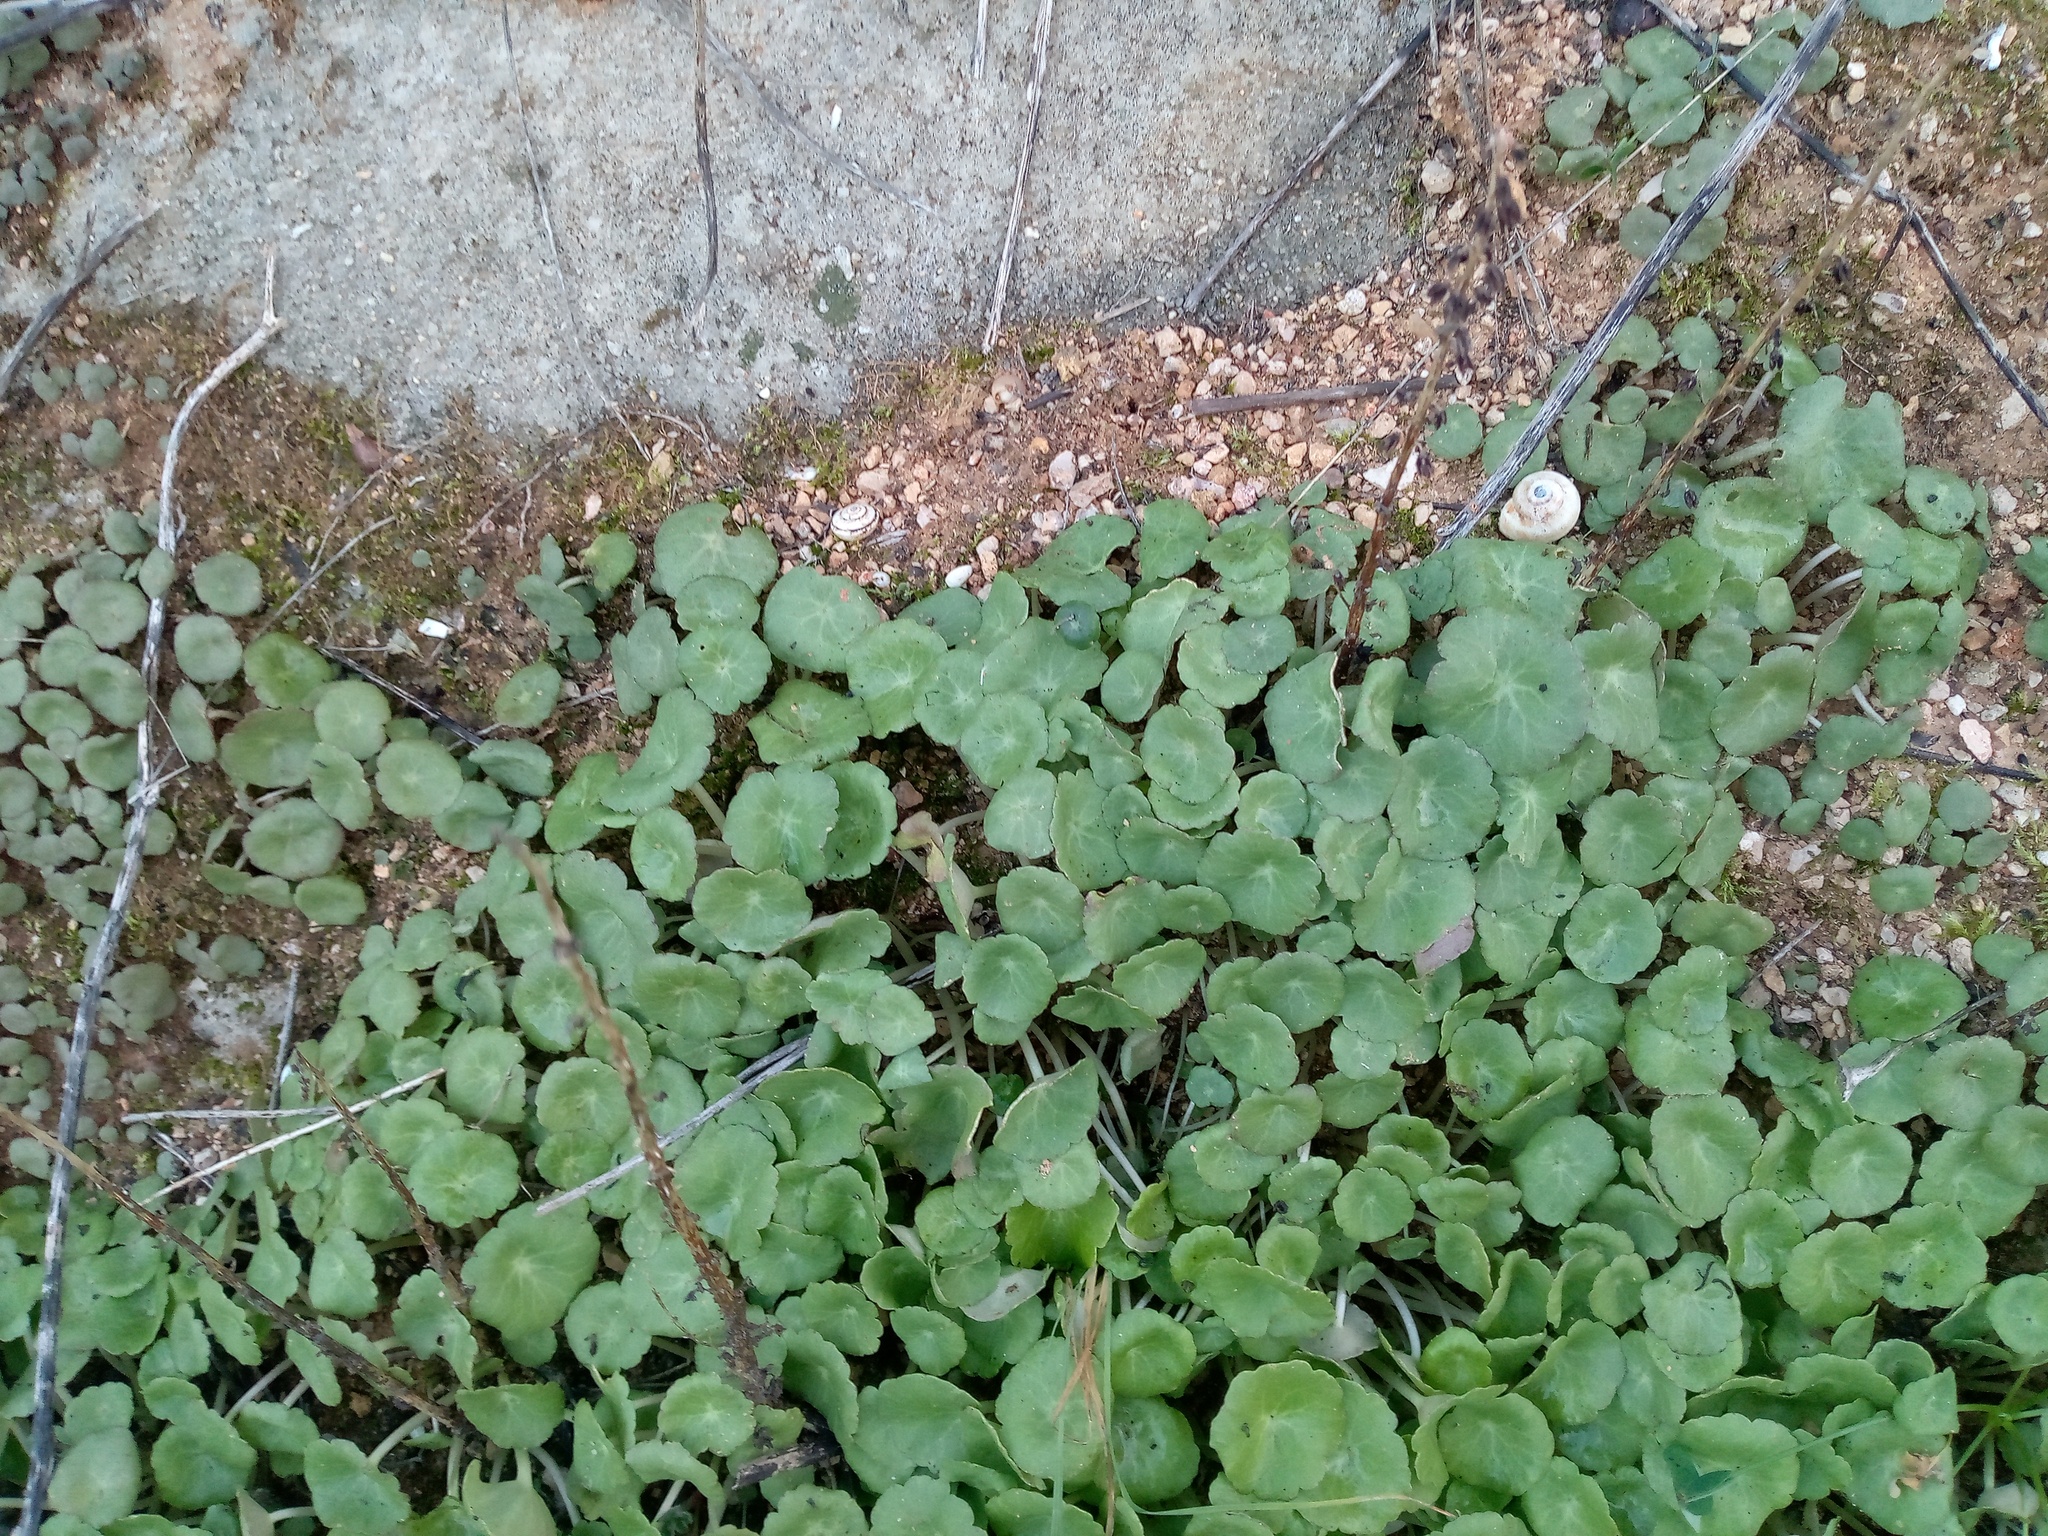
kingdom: Plantae
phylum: Tracheophyta
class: Magnoliopsida
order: Saxifragales
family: Crassulaceae
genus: Umbilicus
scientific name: Umbilicus rupestris
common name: Navelwort
